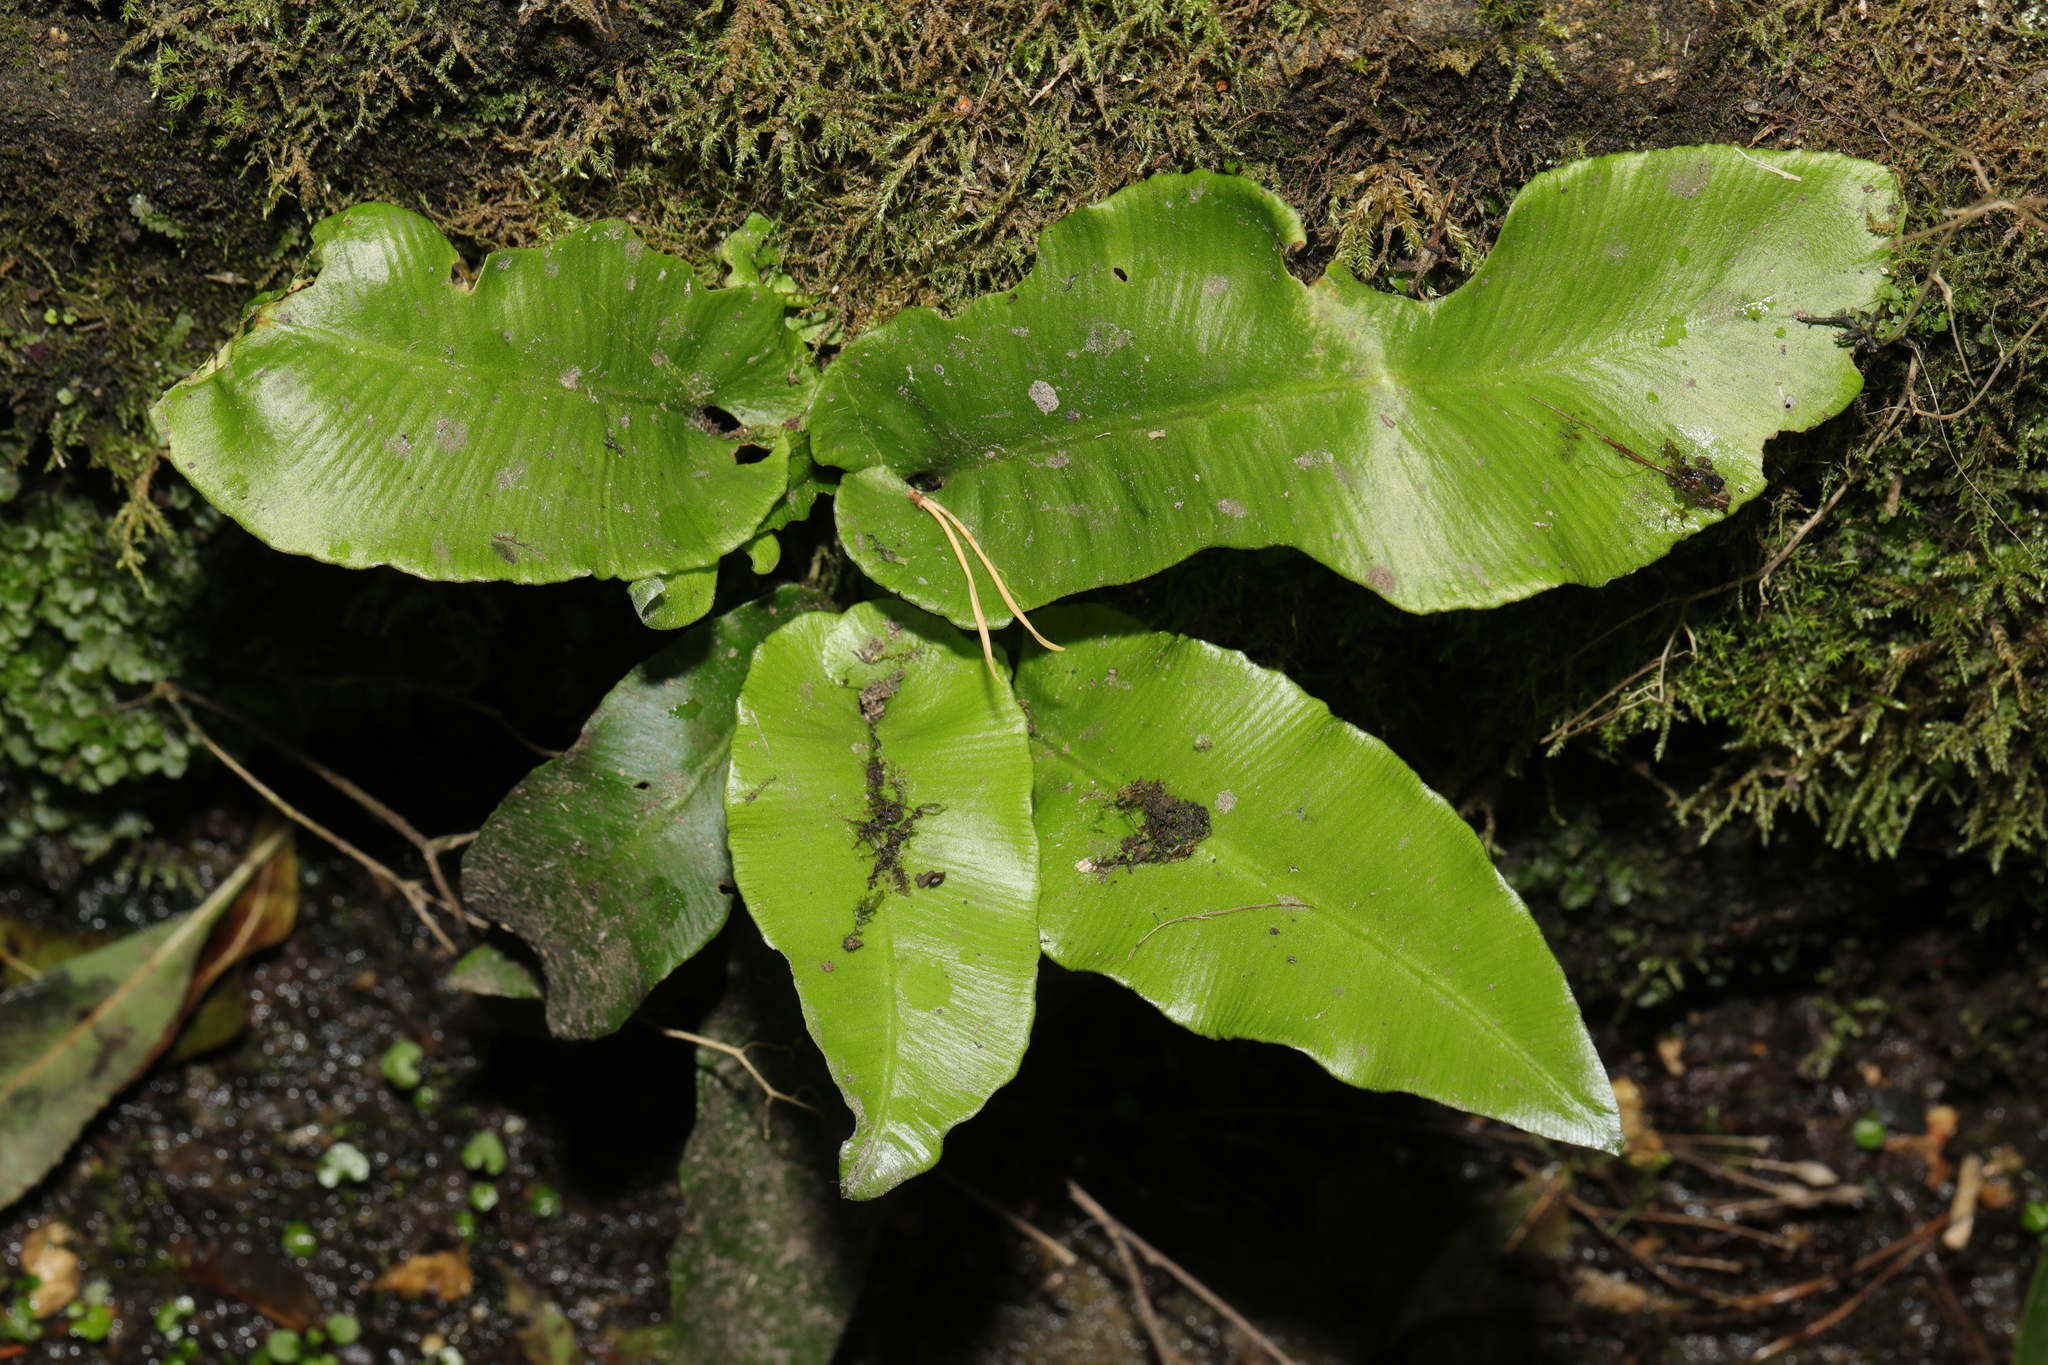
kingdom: Plantae
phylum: Tracheophyta
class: Polypodiopsida
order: Polypodiales
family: Aspleniaceae
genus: Asplenium
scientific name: Asplenium scolopendrium
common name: Hart's-tongue fern
